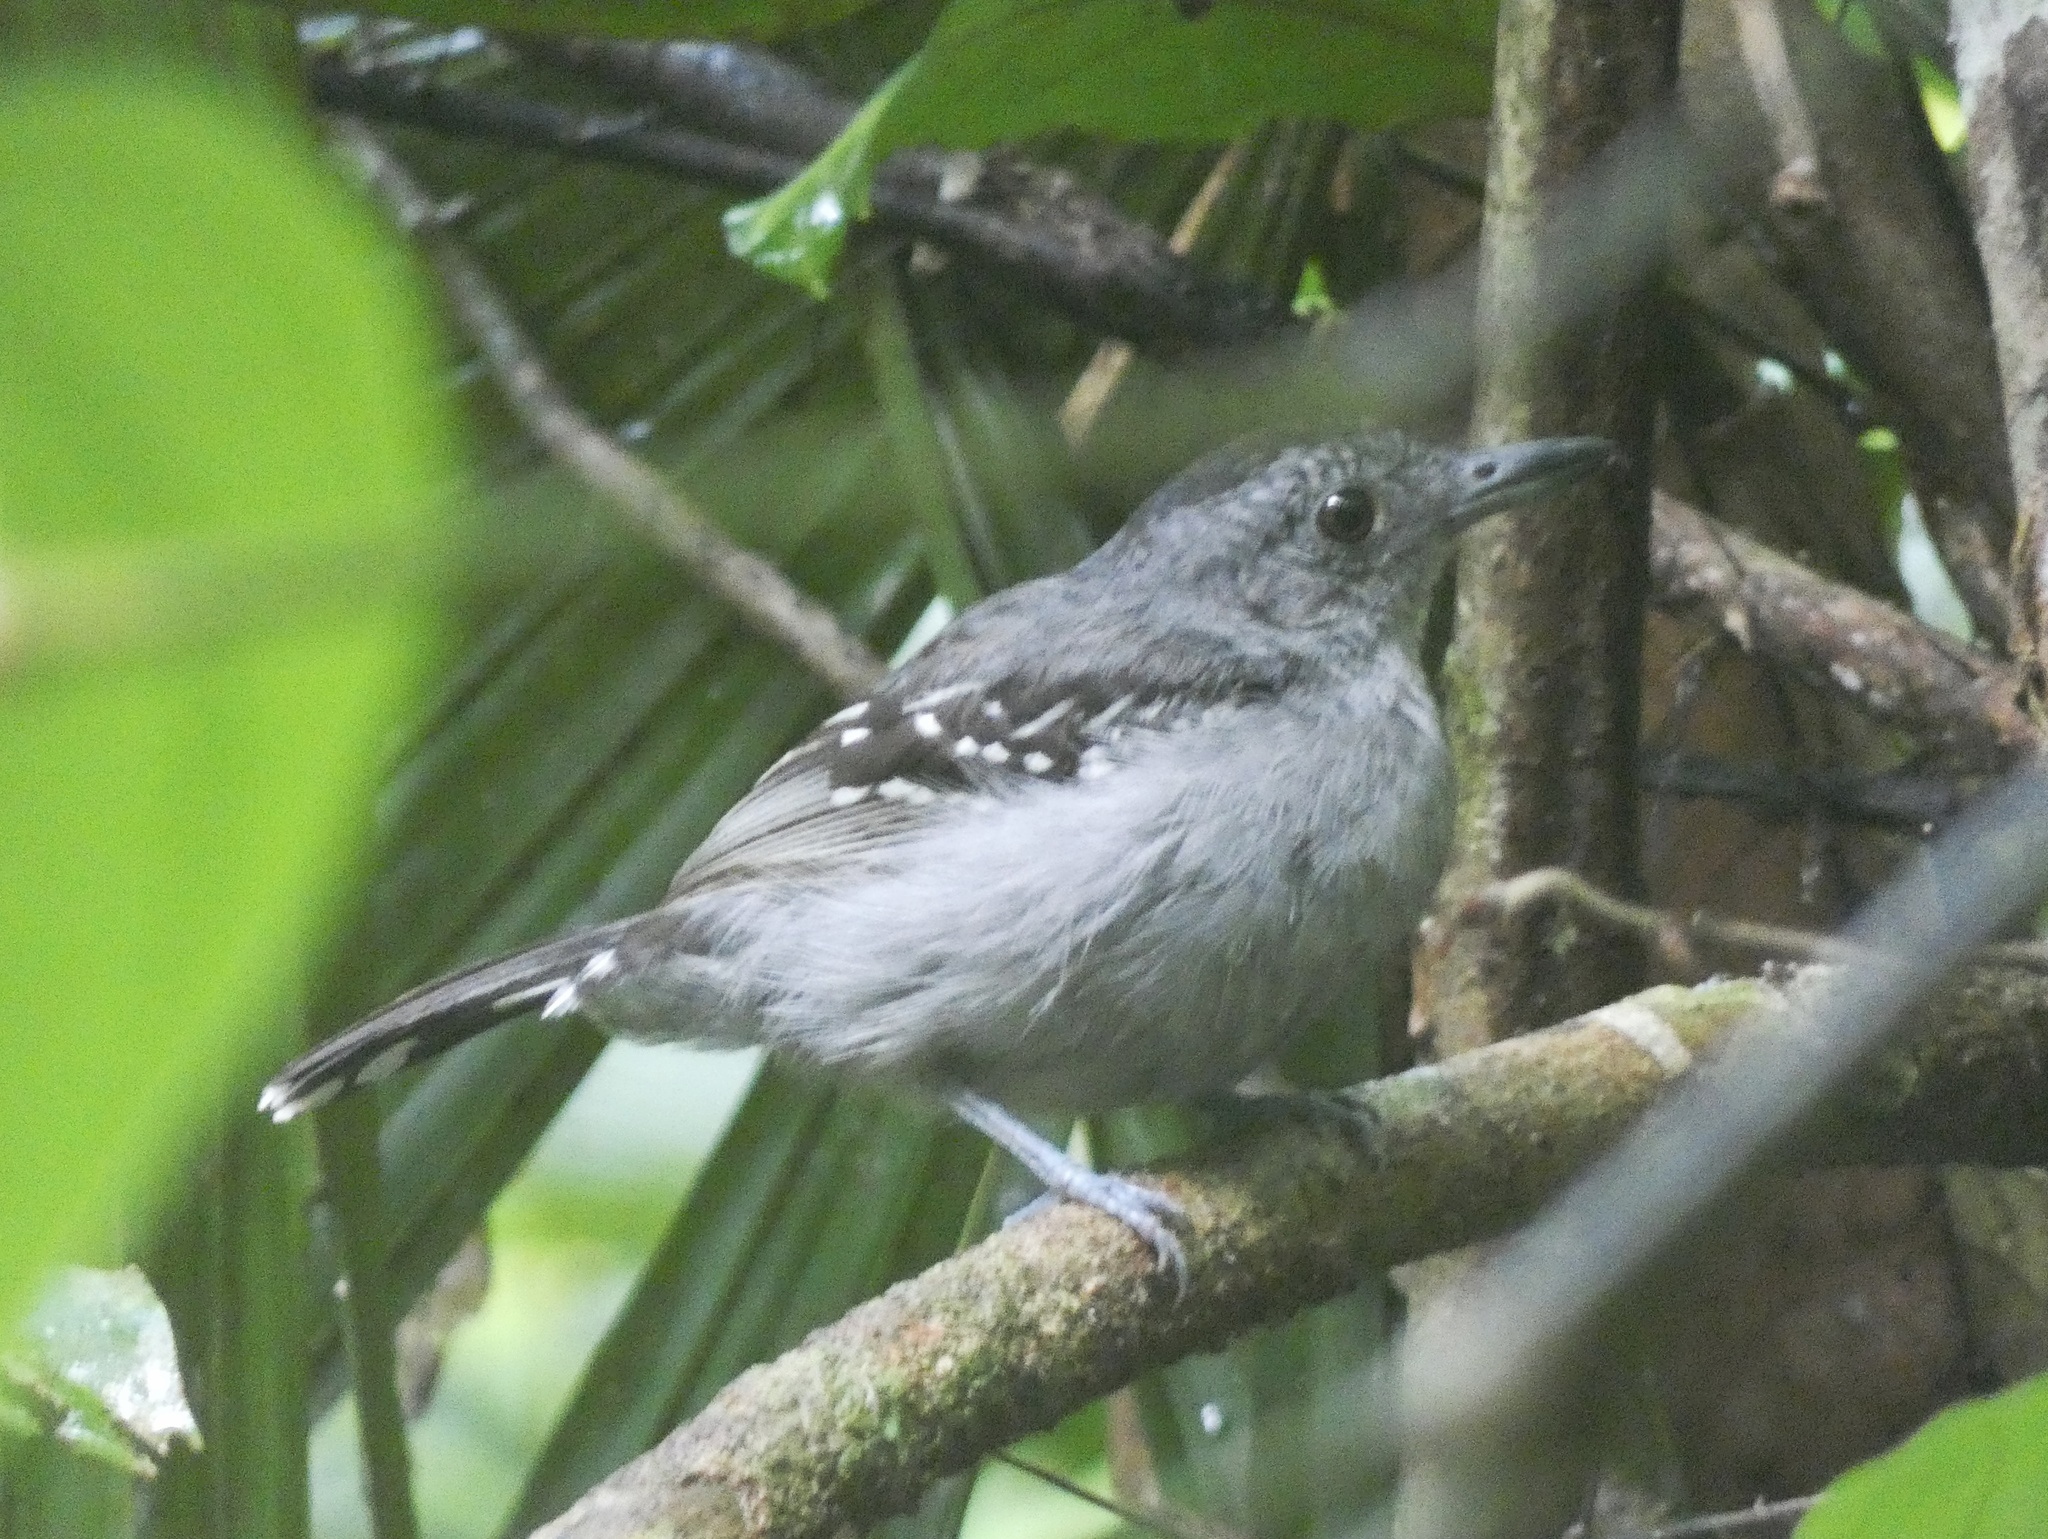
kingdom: Animalia
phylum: Chordata
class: Aves
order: Passeriformes
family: Thamnophilidae
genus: Thamnophilus
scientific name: Thamnophilus atrinucha
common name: Black-crowned antshrike
